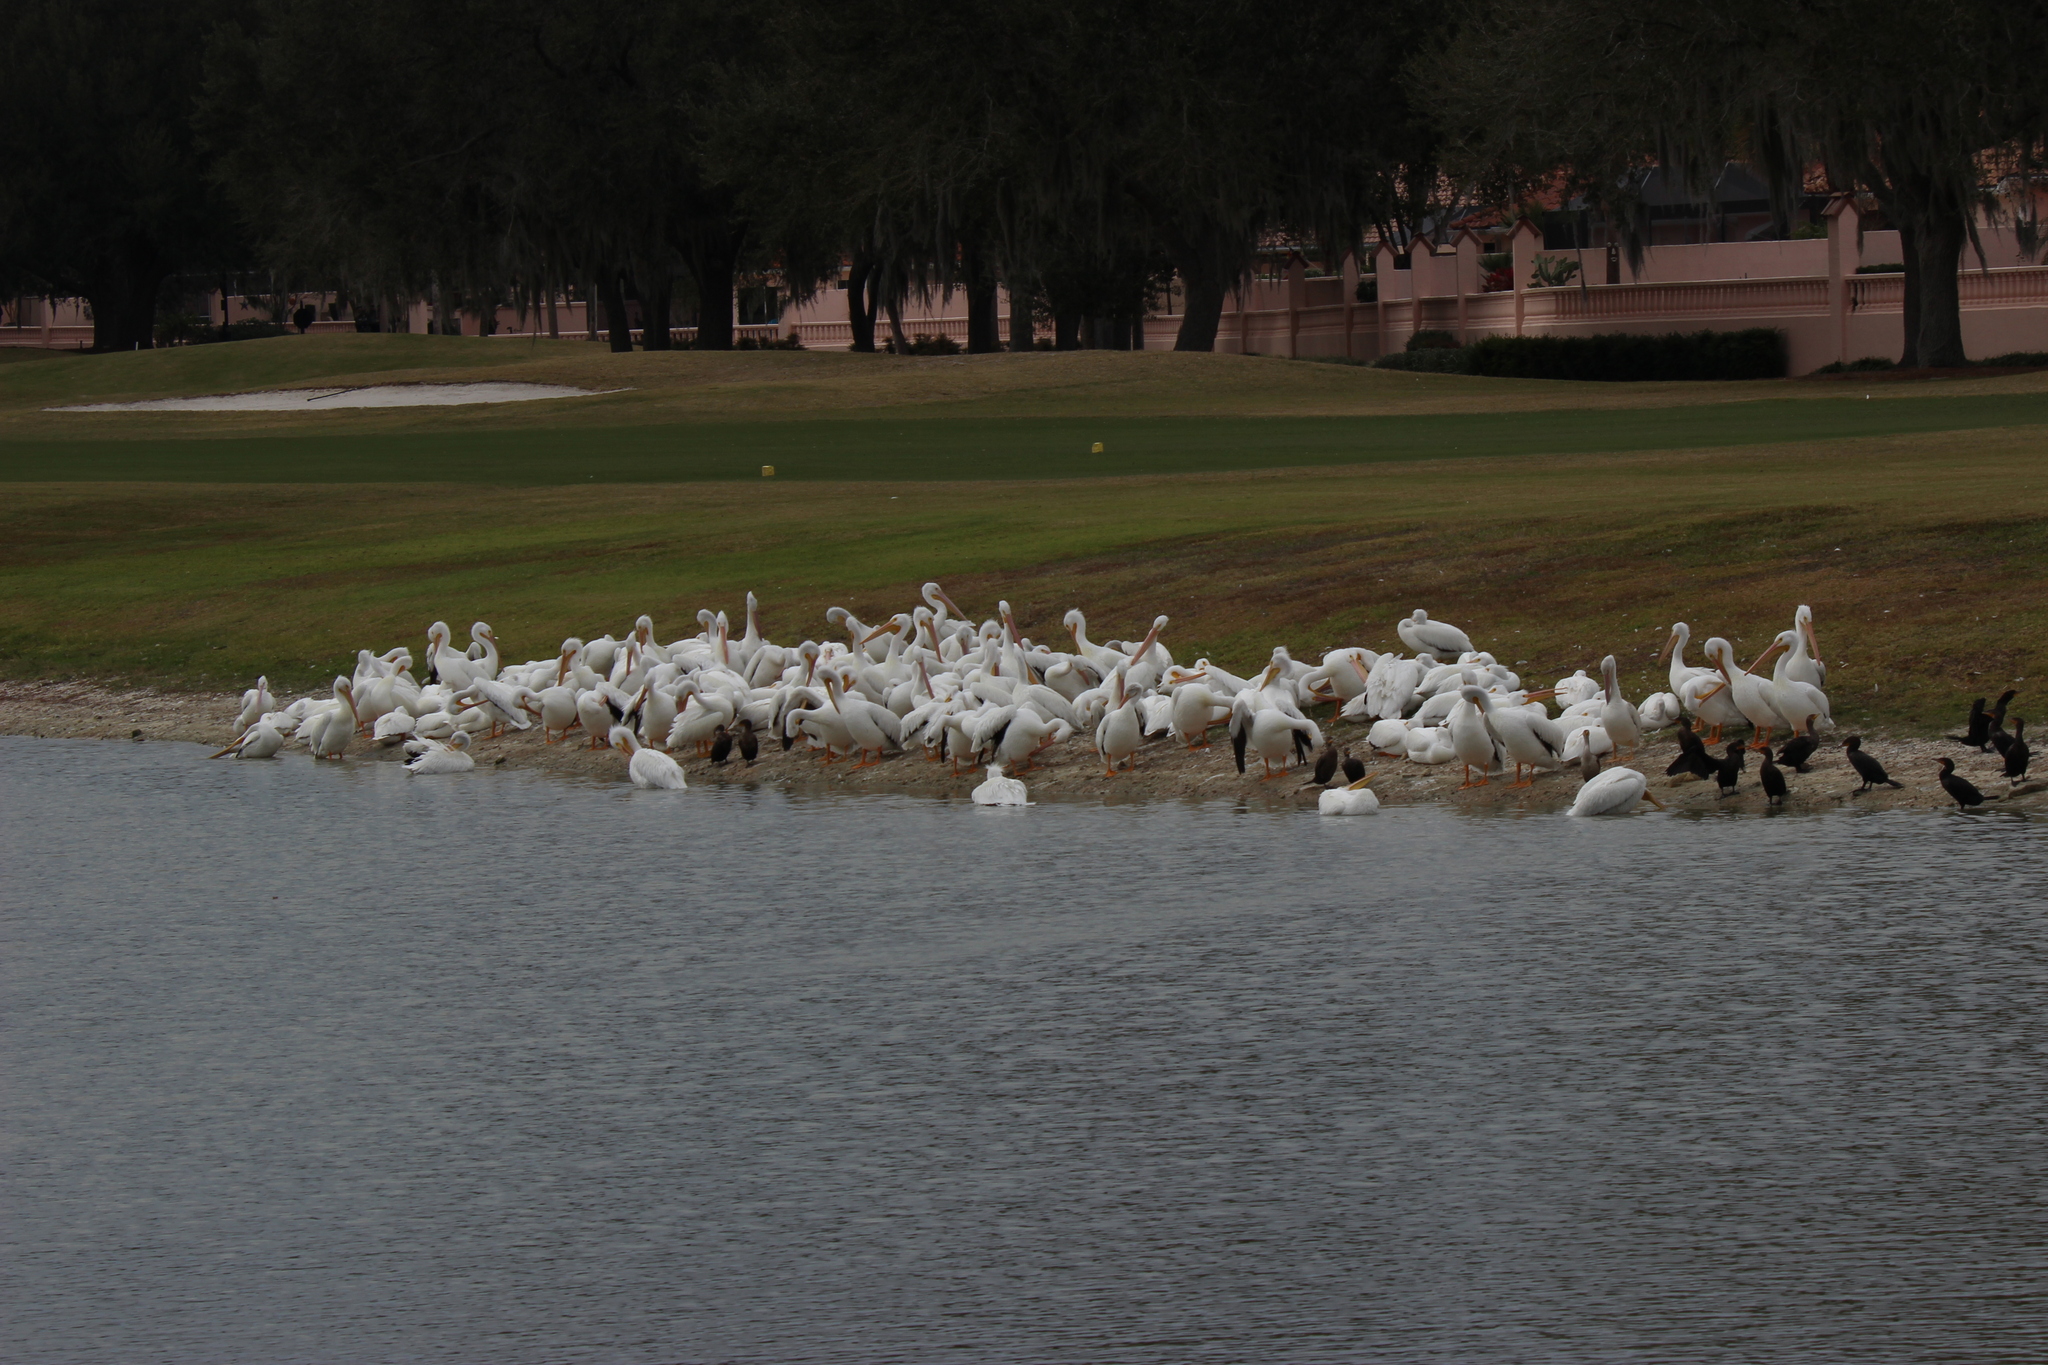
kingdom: Animalia
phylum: Chordata
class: Aves
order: Pelecaniformes
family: Pelecanidae
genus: Pelecanus
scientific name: Pelecanus erythrorhynchos
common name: American white pelican
